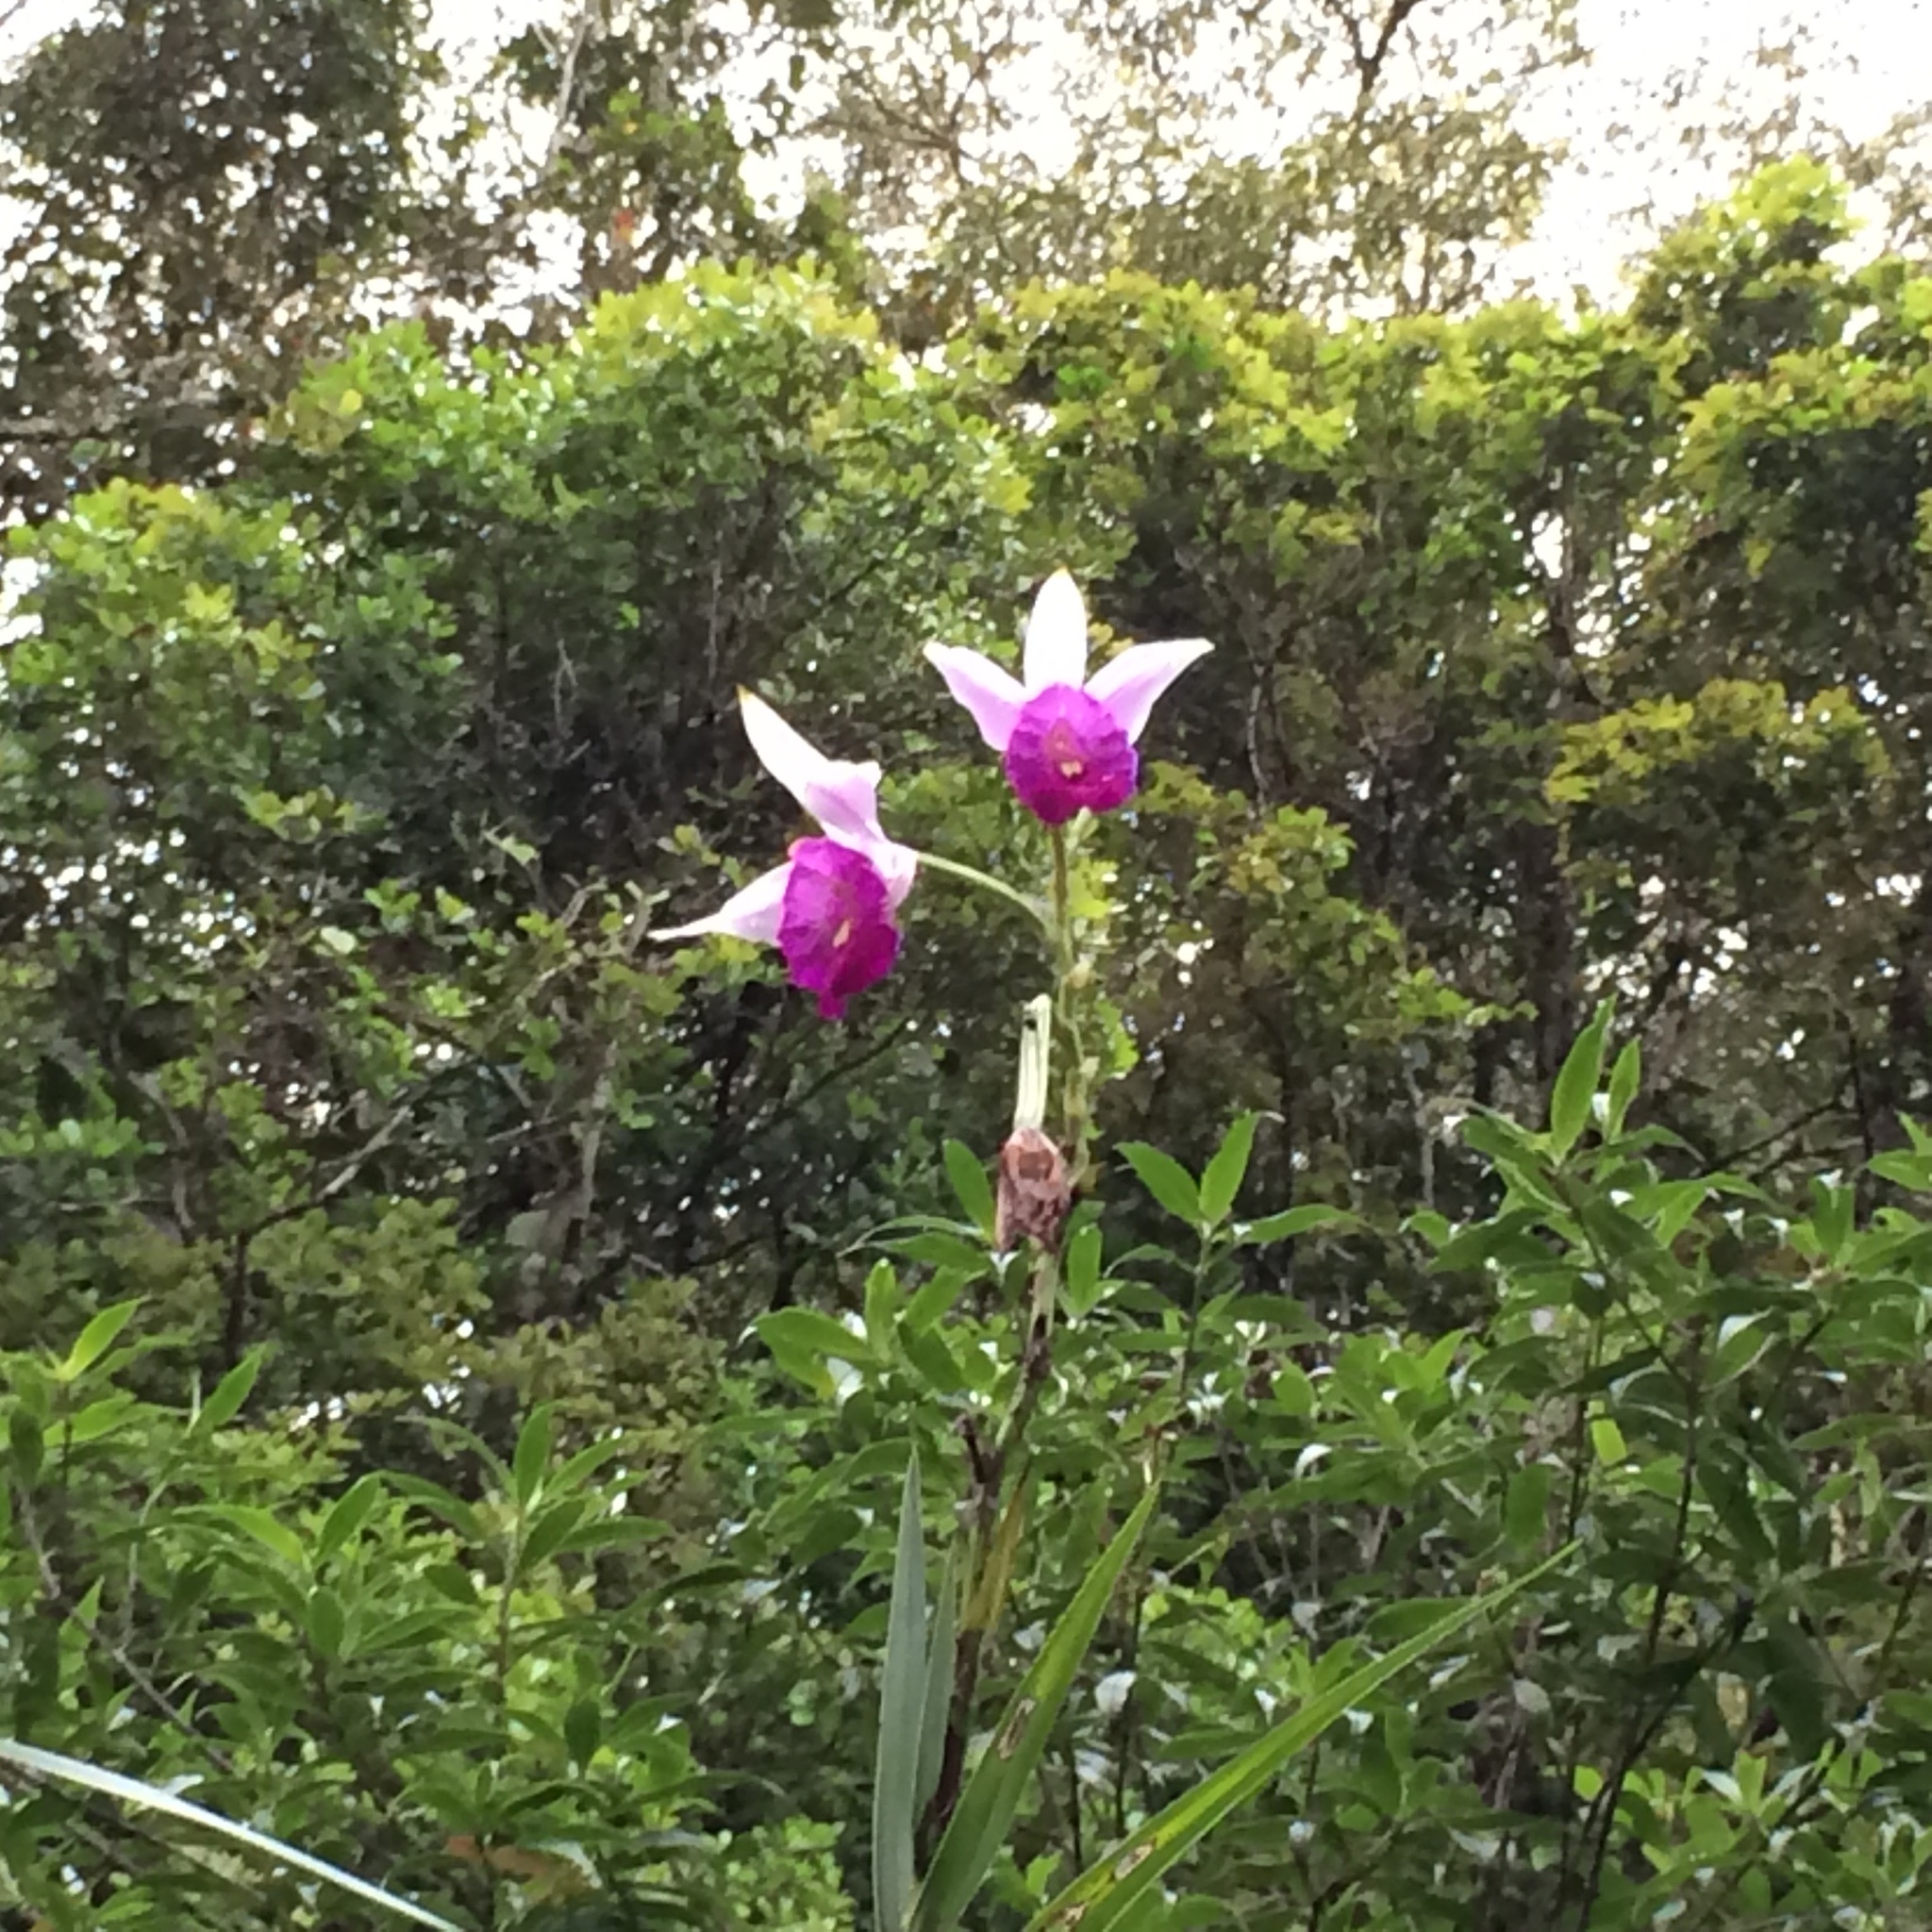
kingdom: Plantae
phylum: Tracheophyta
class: Liliopsida
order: Asparagales
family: Orchidaceae
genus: Arundina
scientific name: Arundina graminifolia
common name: Bamboo orchid
